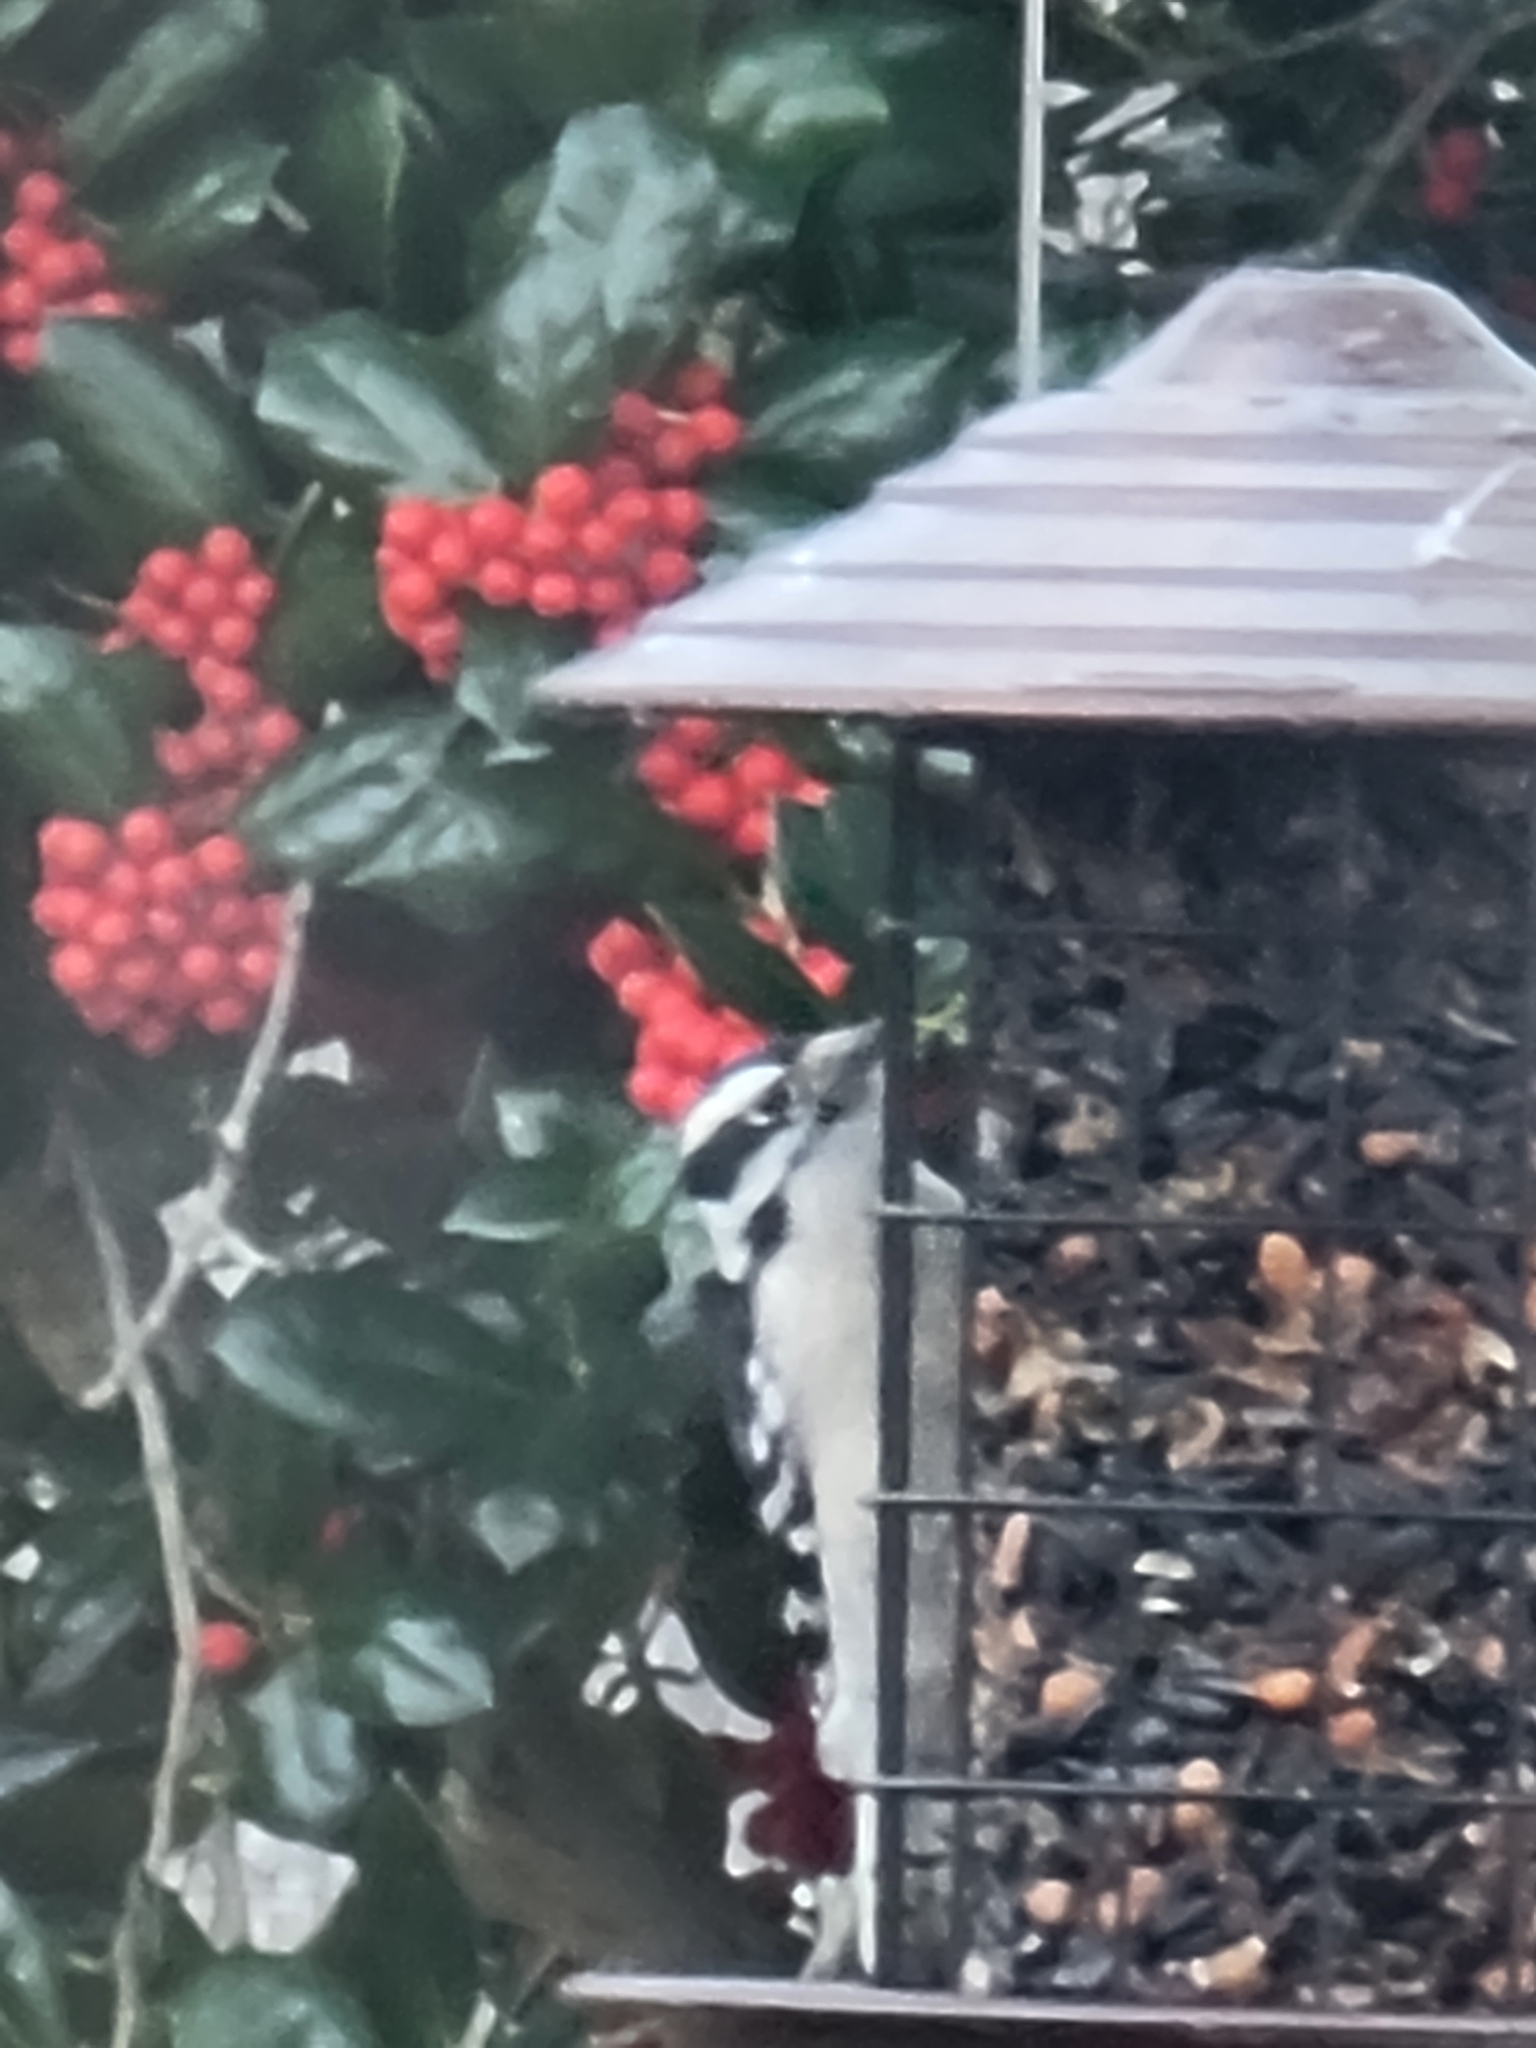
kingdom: Animalia
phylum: Chordata
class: Aves
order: Piciformes
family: Picidae
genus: Dryobates
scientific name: Dryobates pubescens
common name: Downy woodpecker
